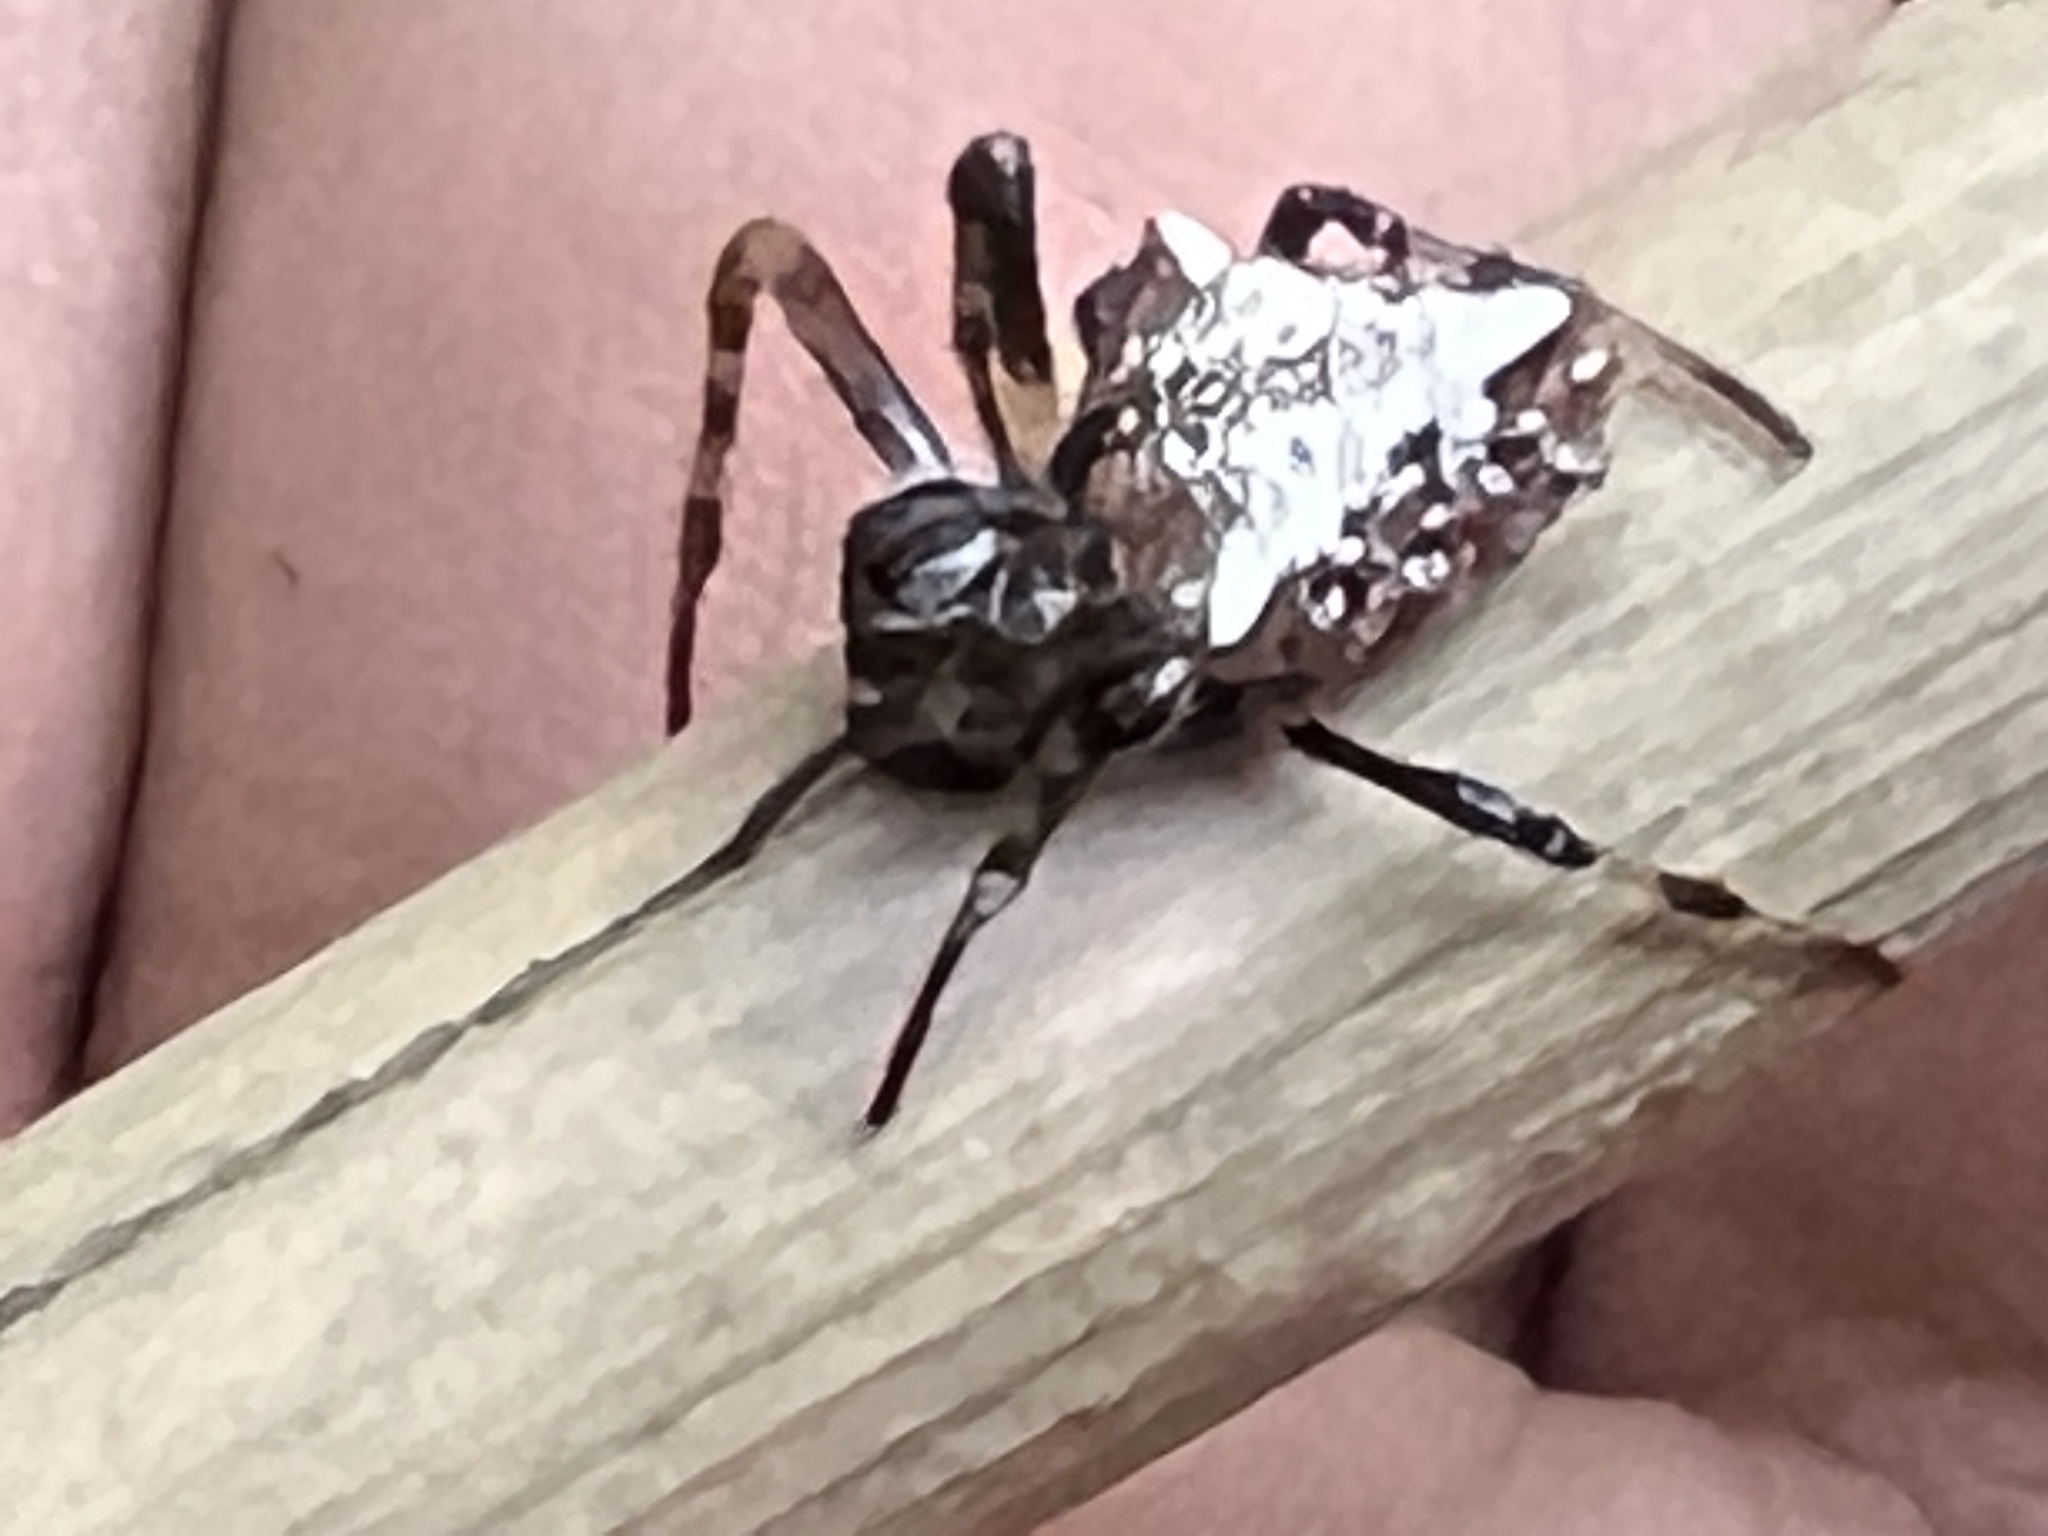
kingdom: Animalia
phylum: Arthropoda
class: Arachnida
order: Araneae
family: Araneidae
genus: Verrucosa
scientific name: Verrucosa meridionalis
